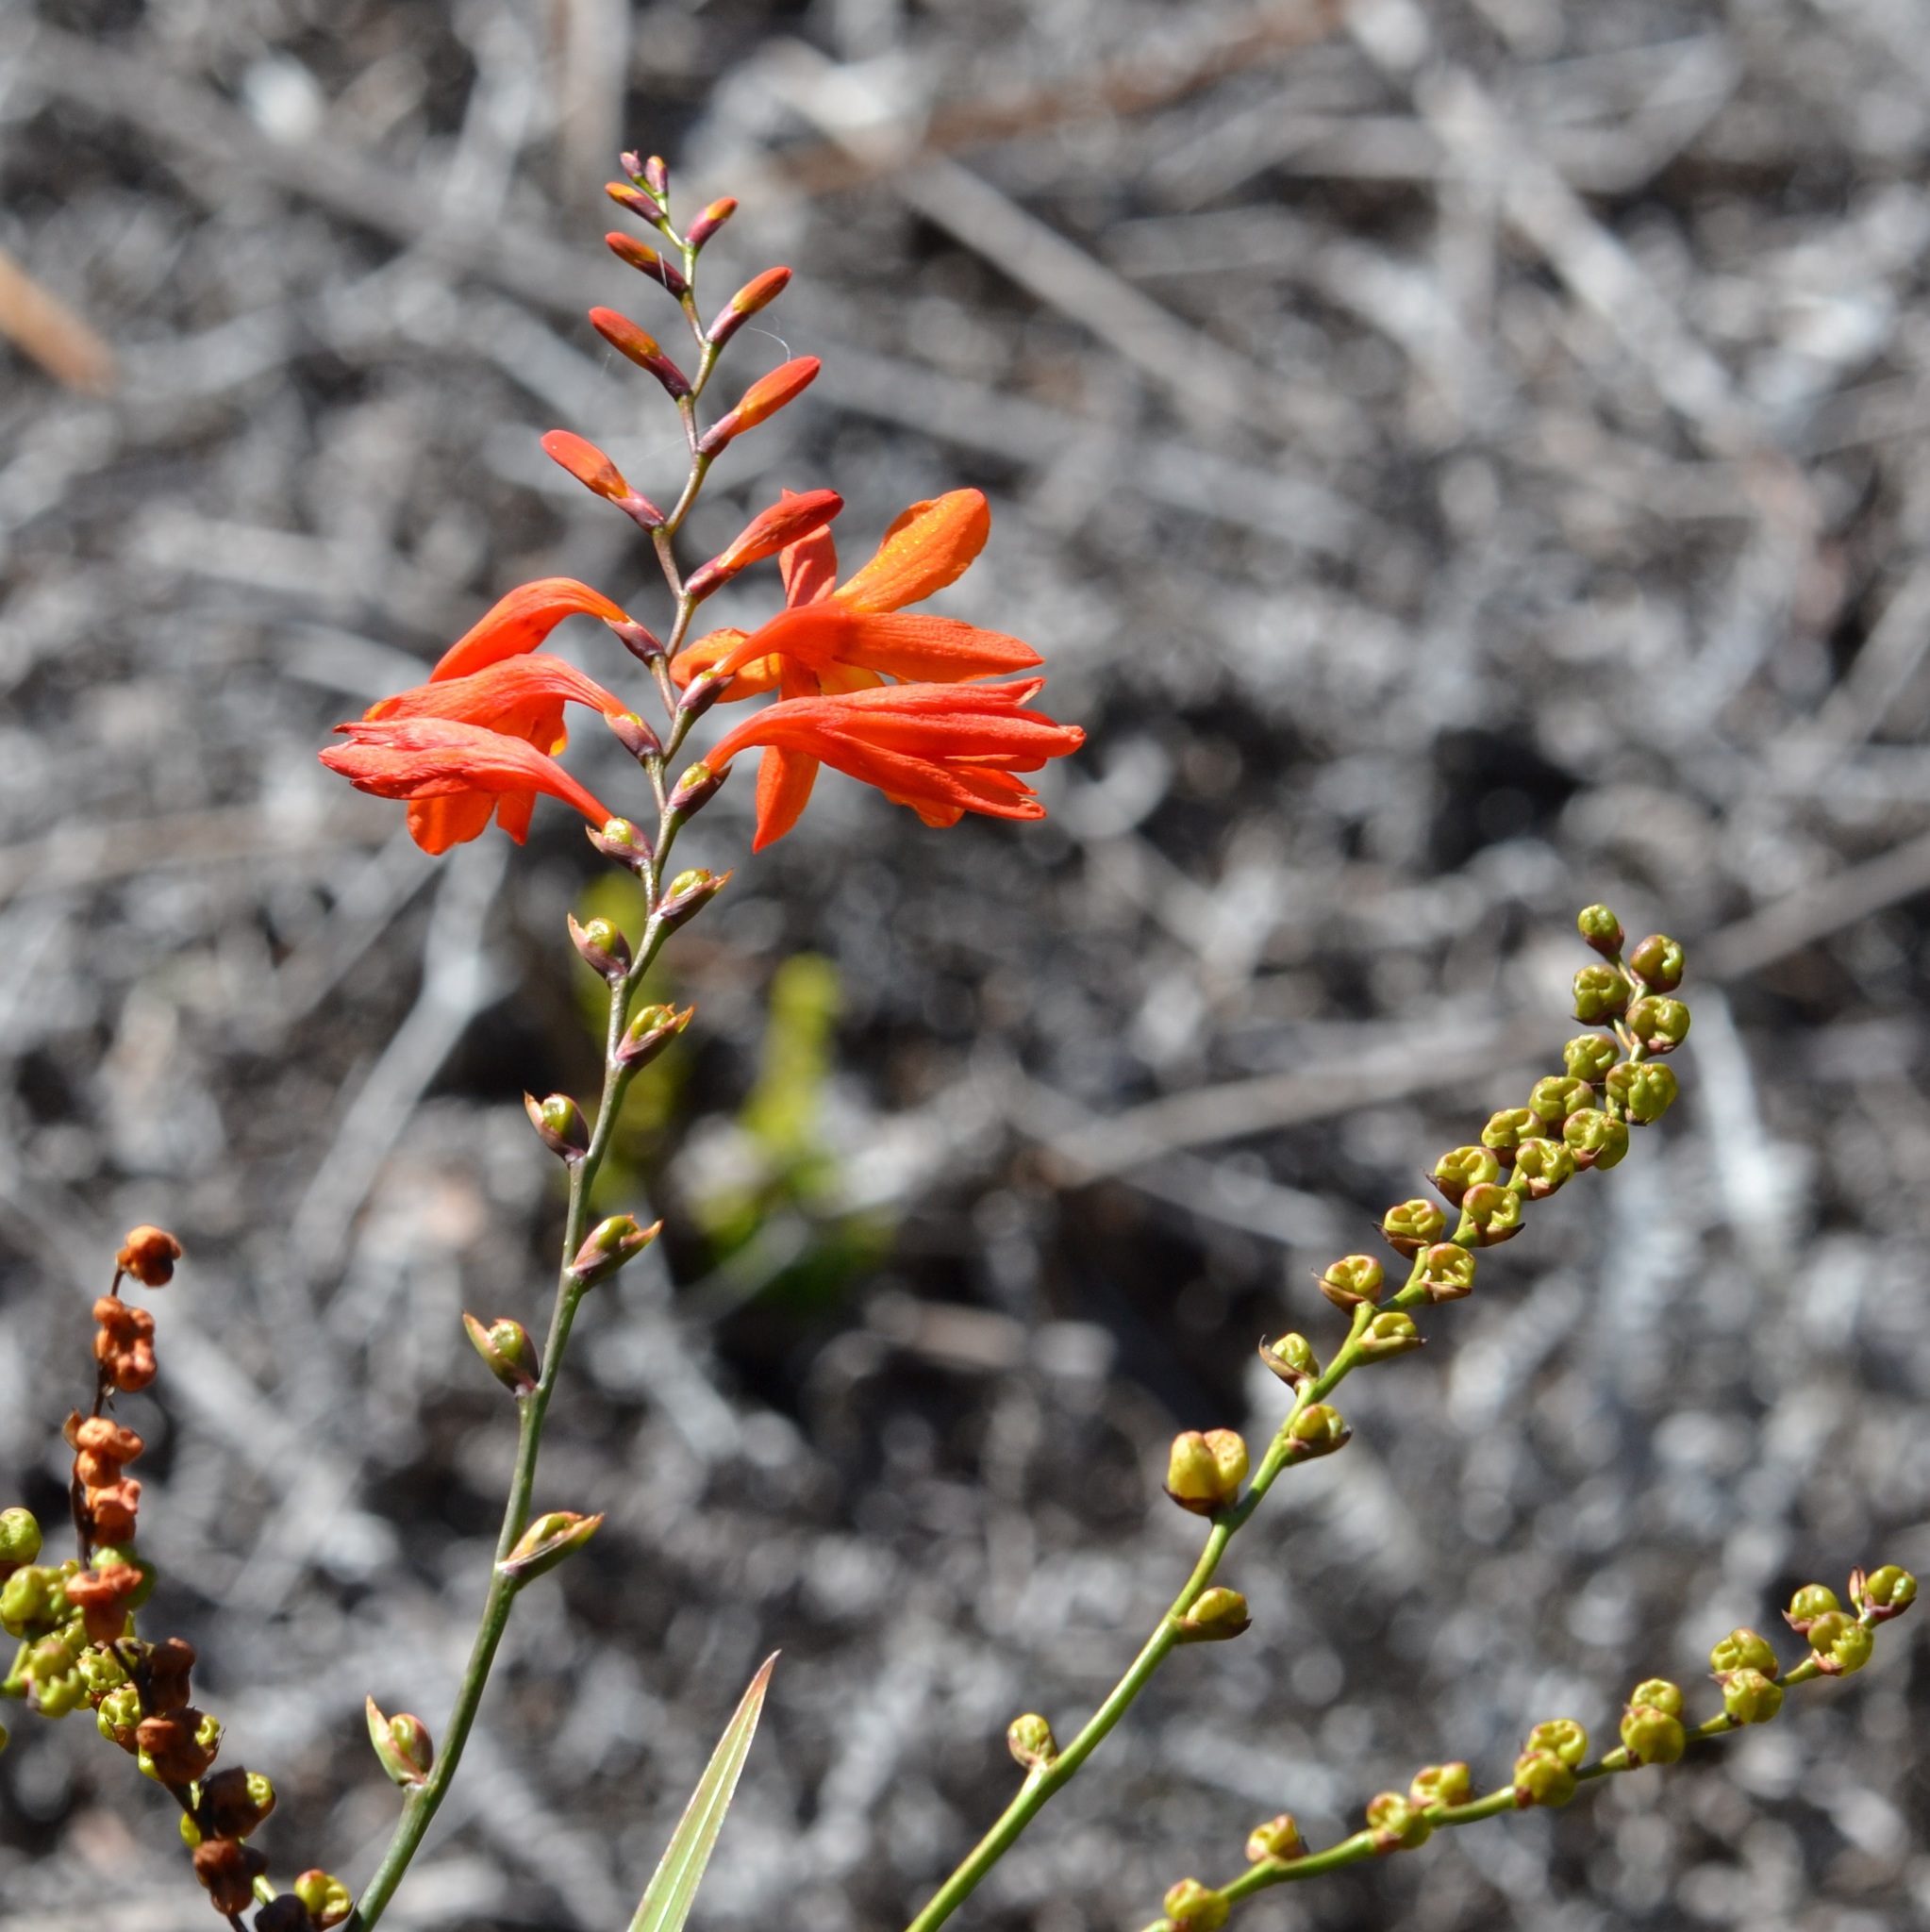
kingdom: Plantae
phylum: Tracheophyta
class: Liliopsida
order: Asparagales
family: Iridaceae
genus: Crocosmia
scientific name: Crocosmia crocosmiiflora
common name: Montbretia
